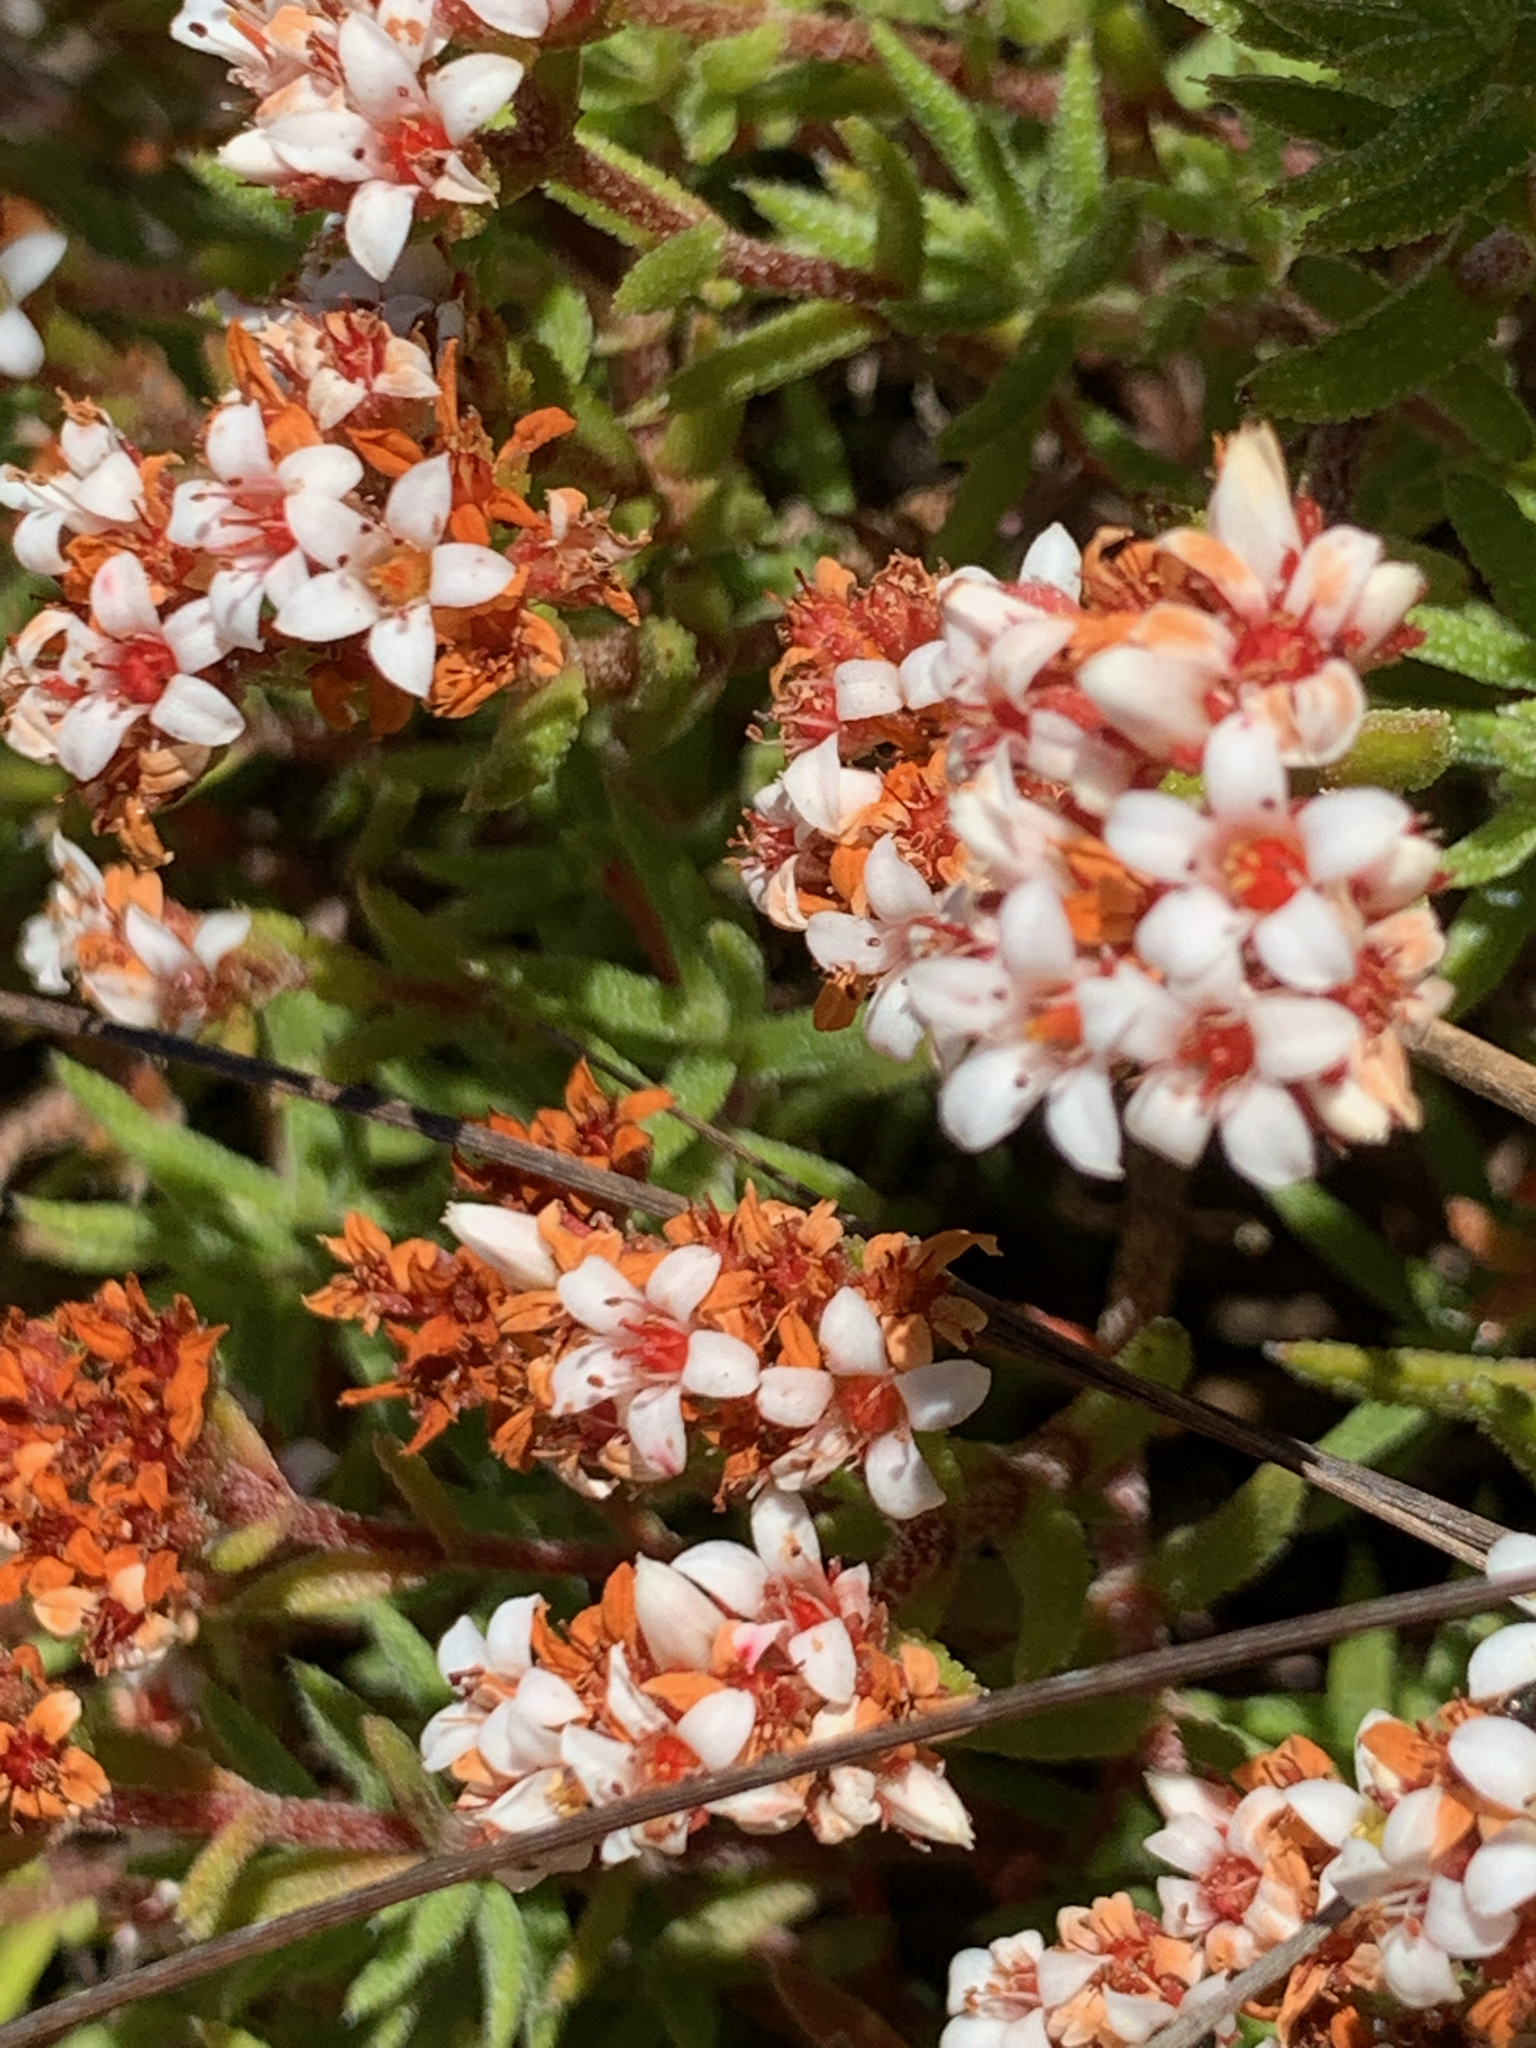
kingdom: Plantae
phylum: Tracheophyta
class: Magnoliopsida
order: Saxifragales
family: Crassulaceae
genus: Crassula
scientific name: Crassula pruinosa
